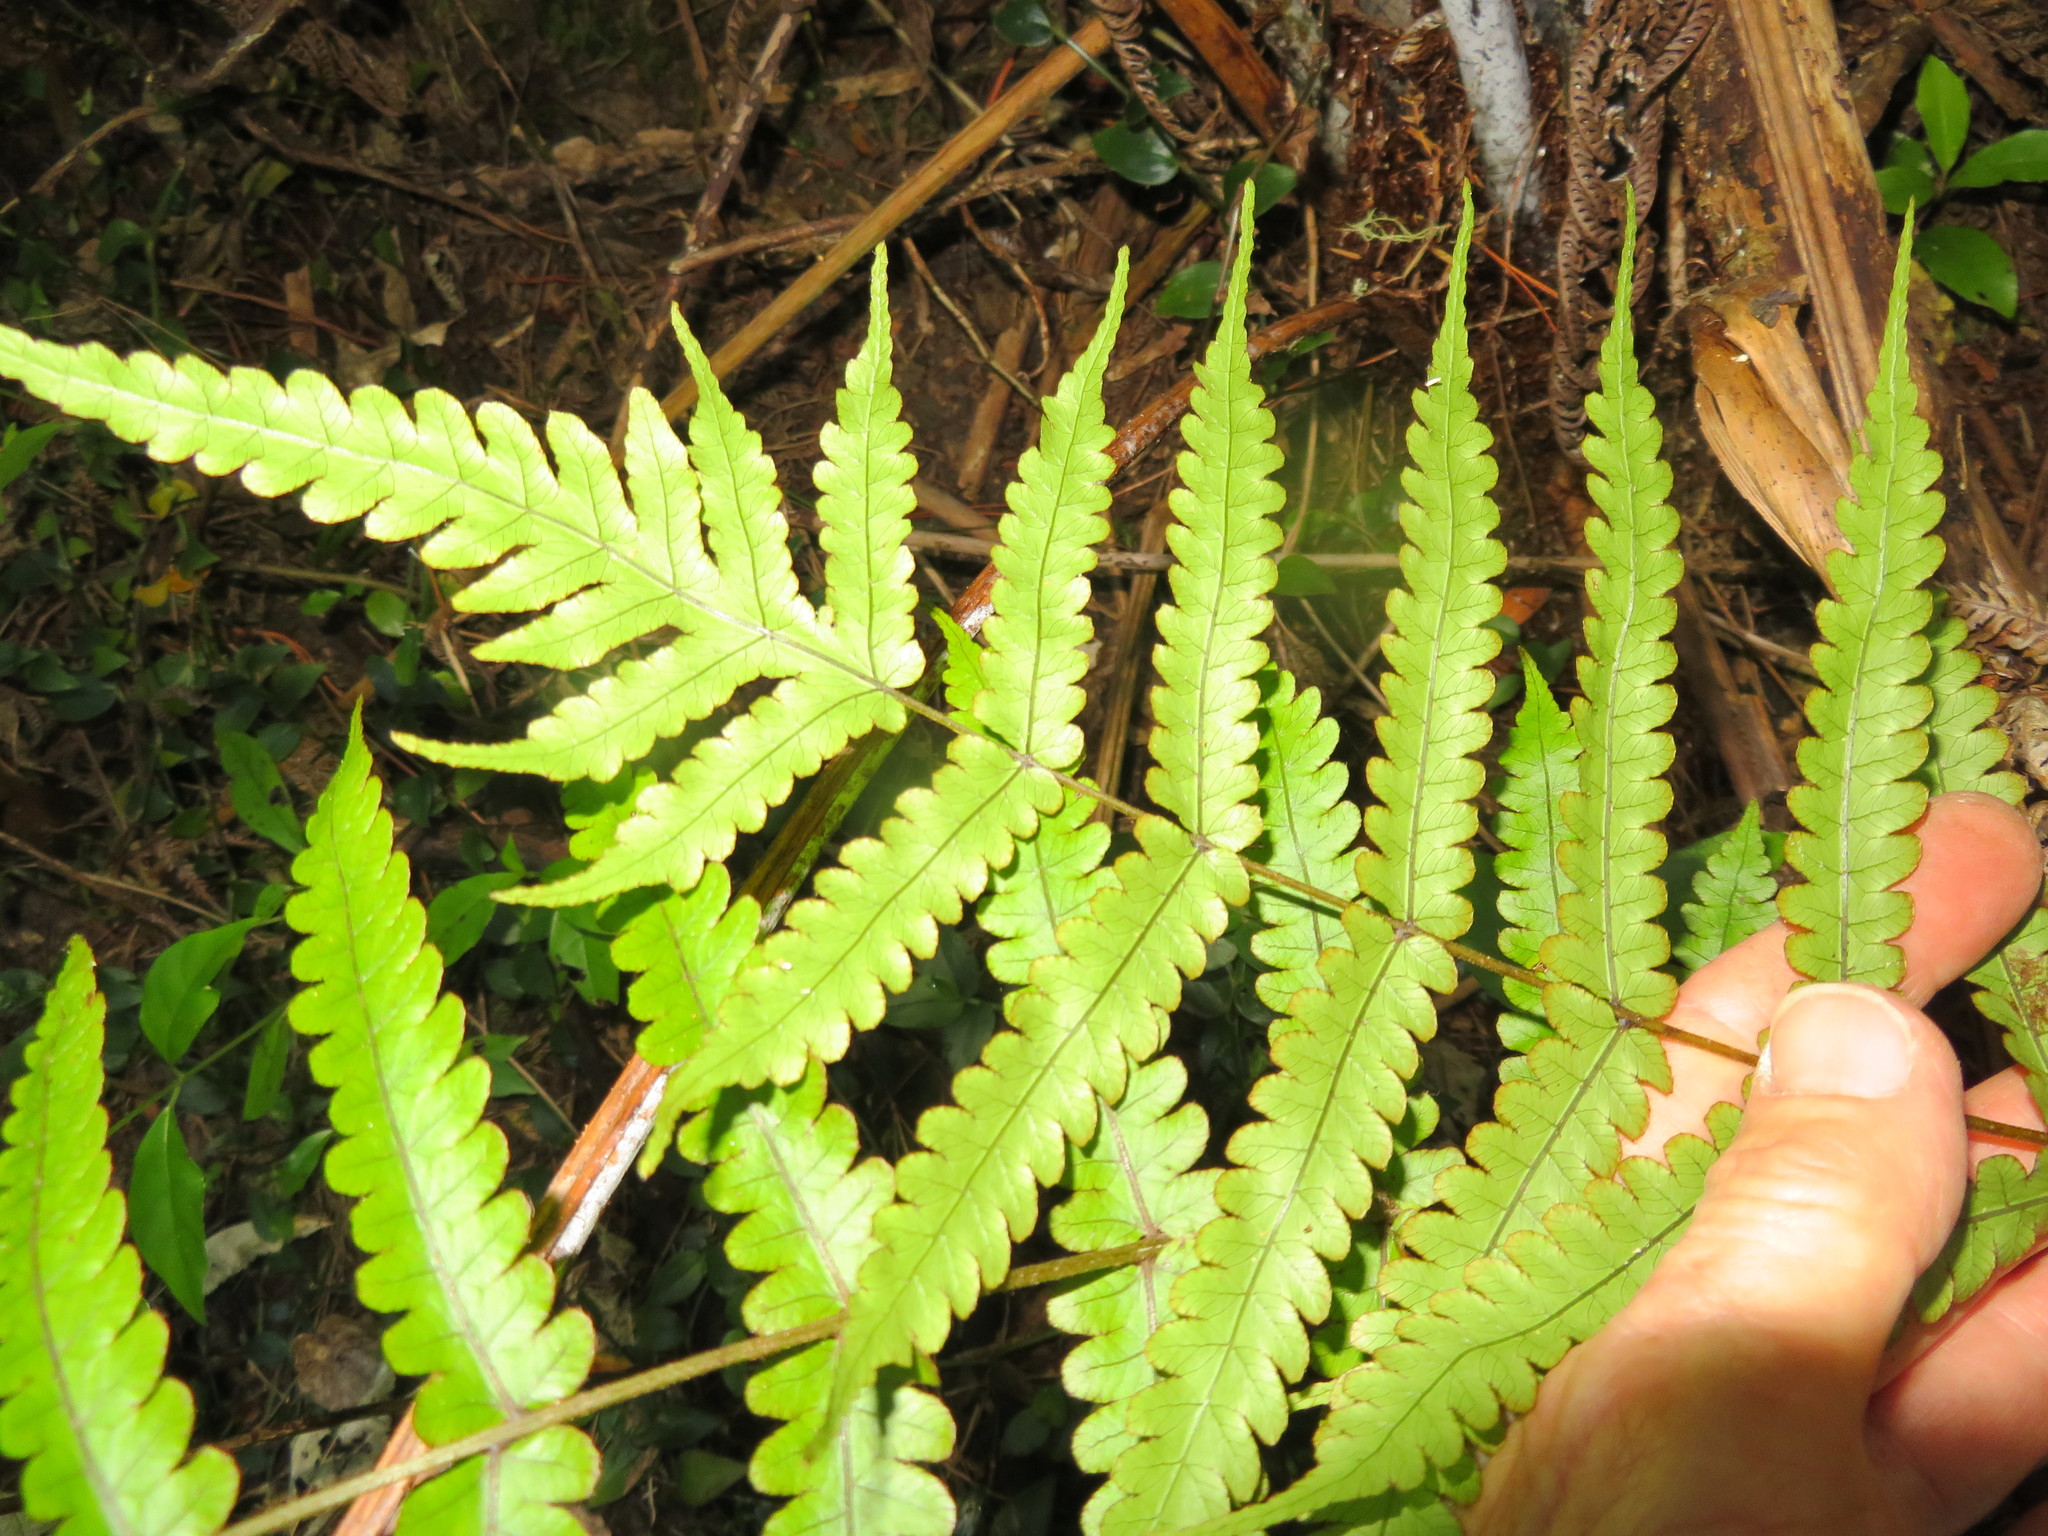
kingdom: Plantae
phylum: Tracheophyta
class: Polypodiopsida
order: Polypodiales
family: Thelypteridaceae
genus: Pakau
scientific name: Pakau pennigera
